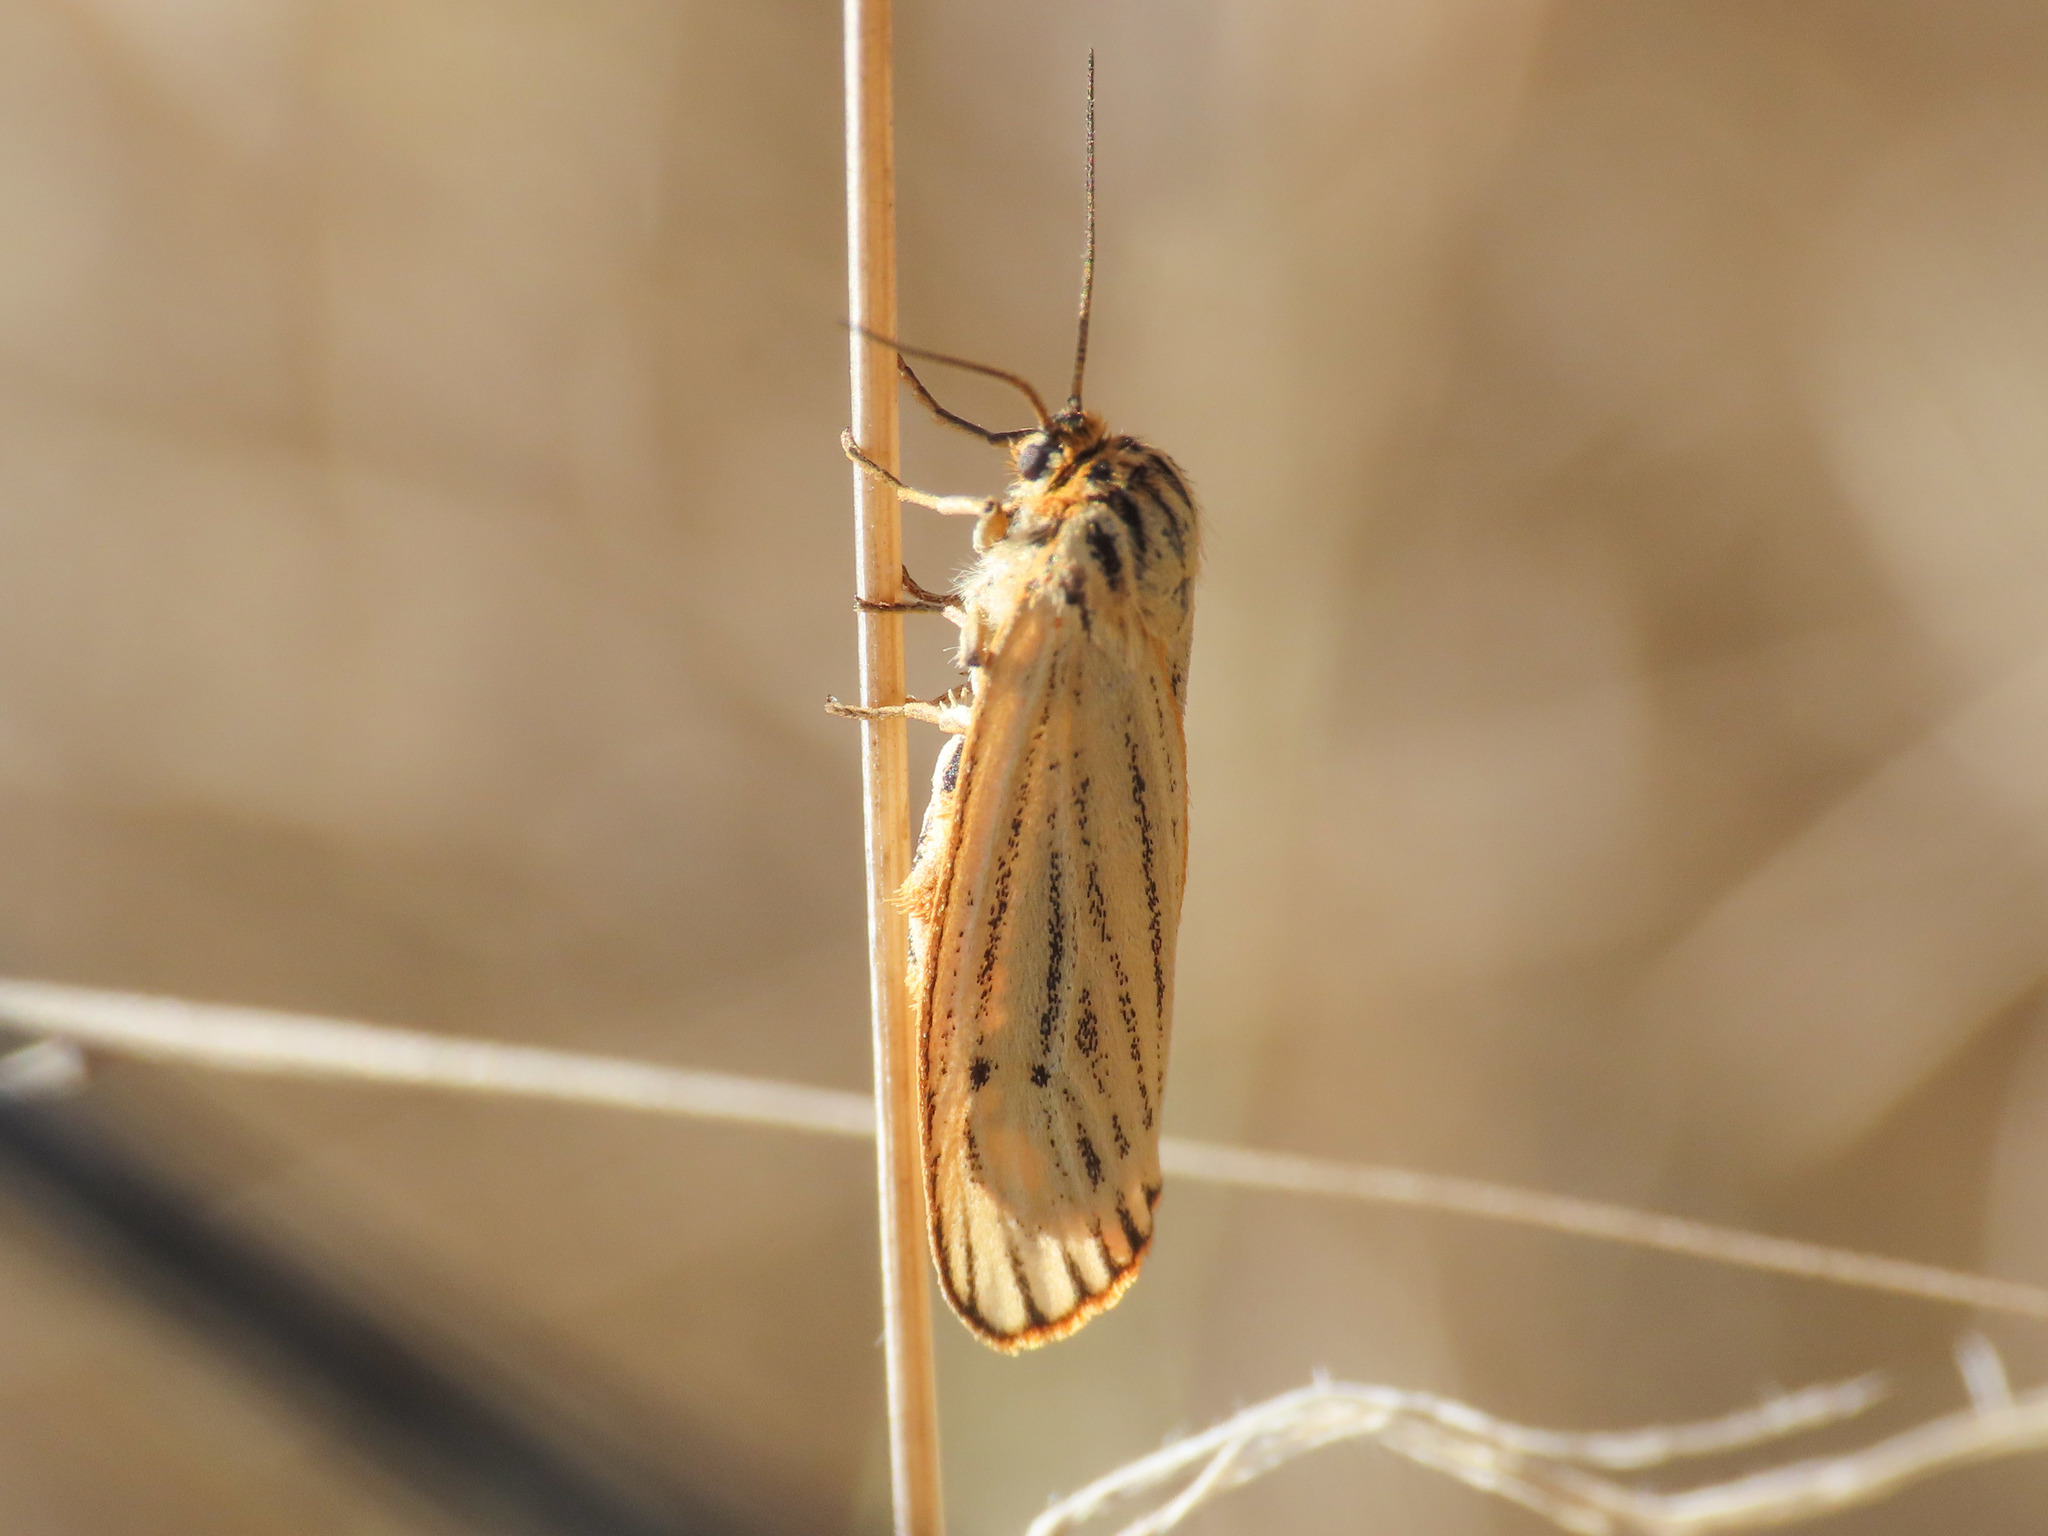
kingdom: Animalia
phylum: Arthropoda
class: Insecta
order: Lepidoptera
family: Erebidae
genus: Coscinia
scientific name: Coscinia Spiris striata
